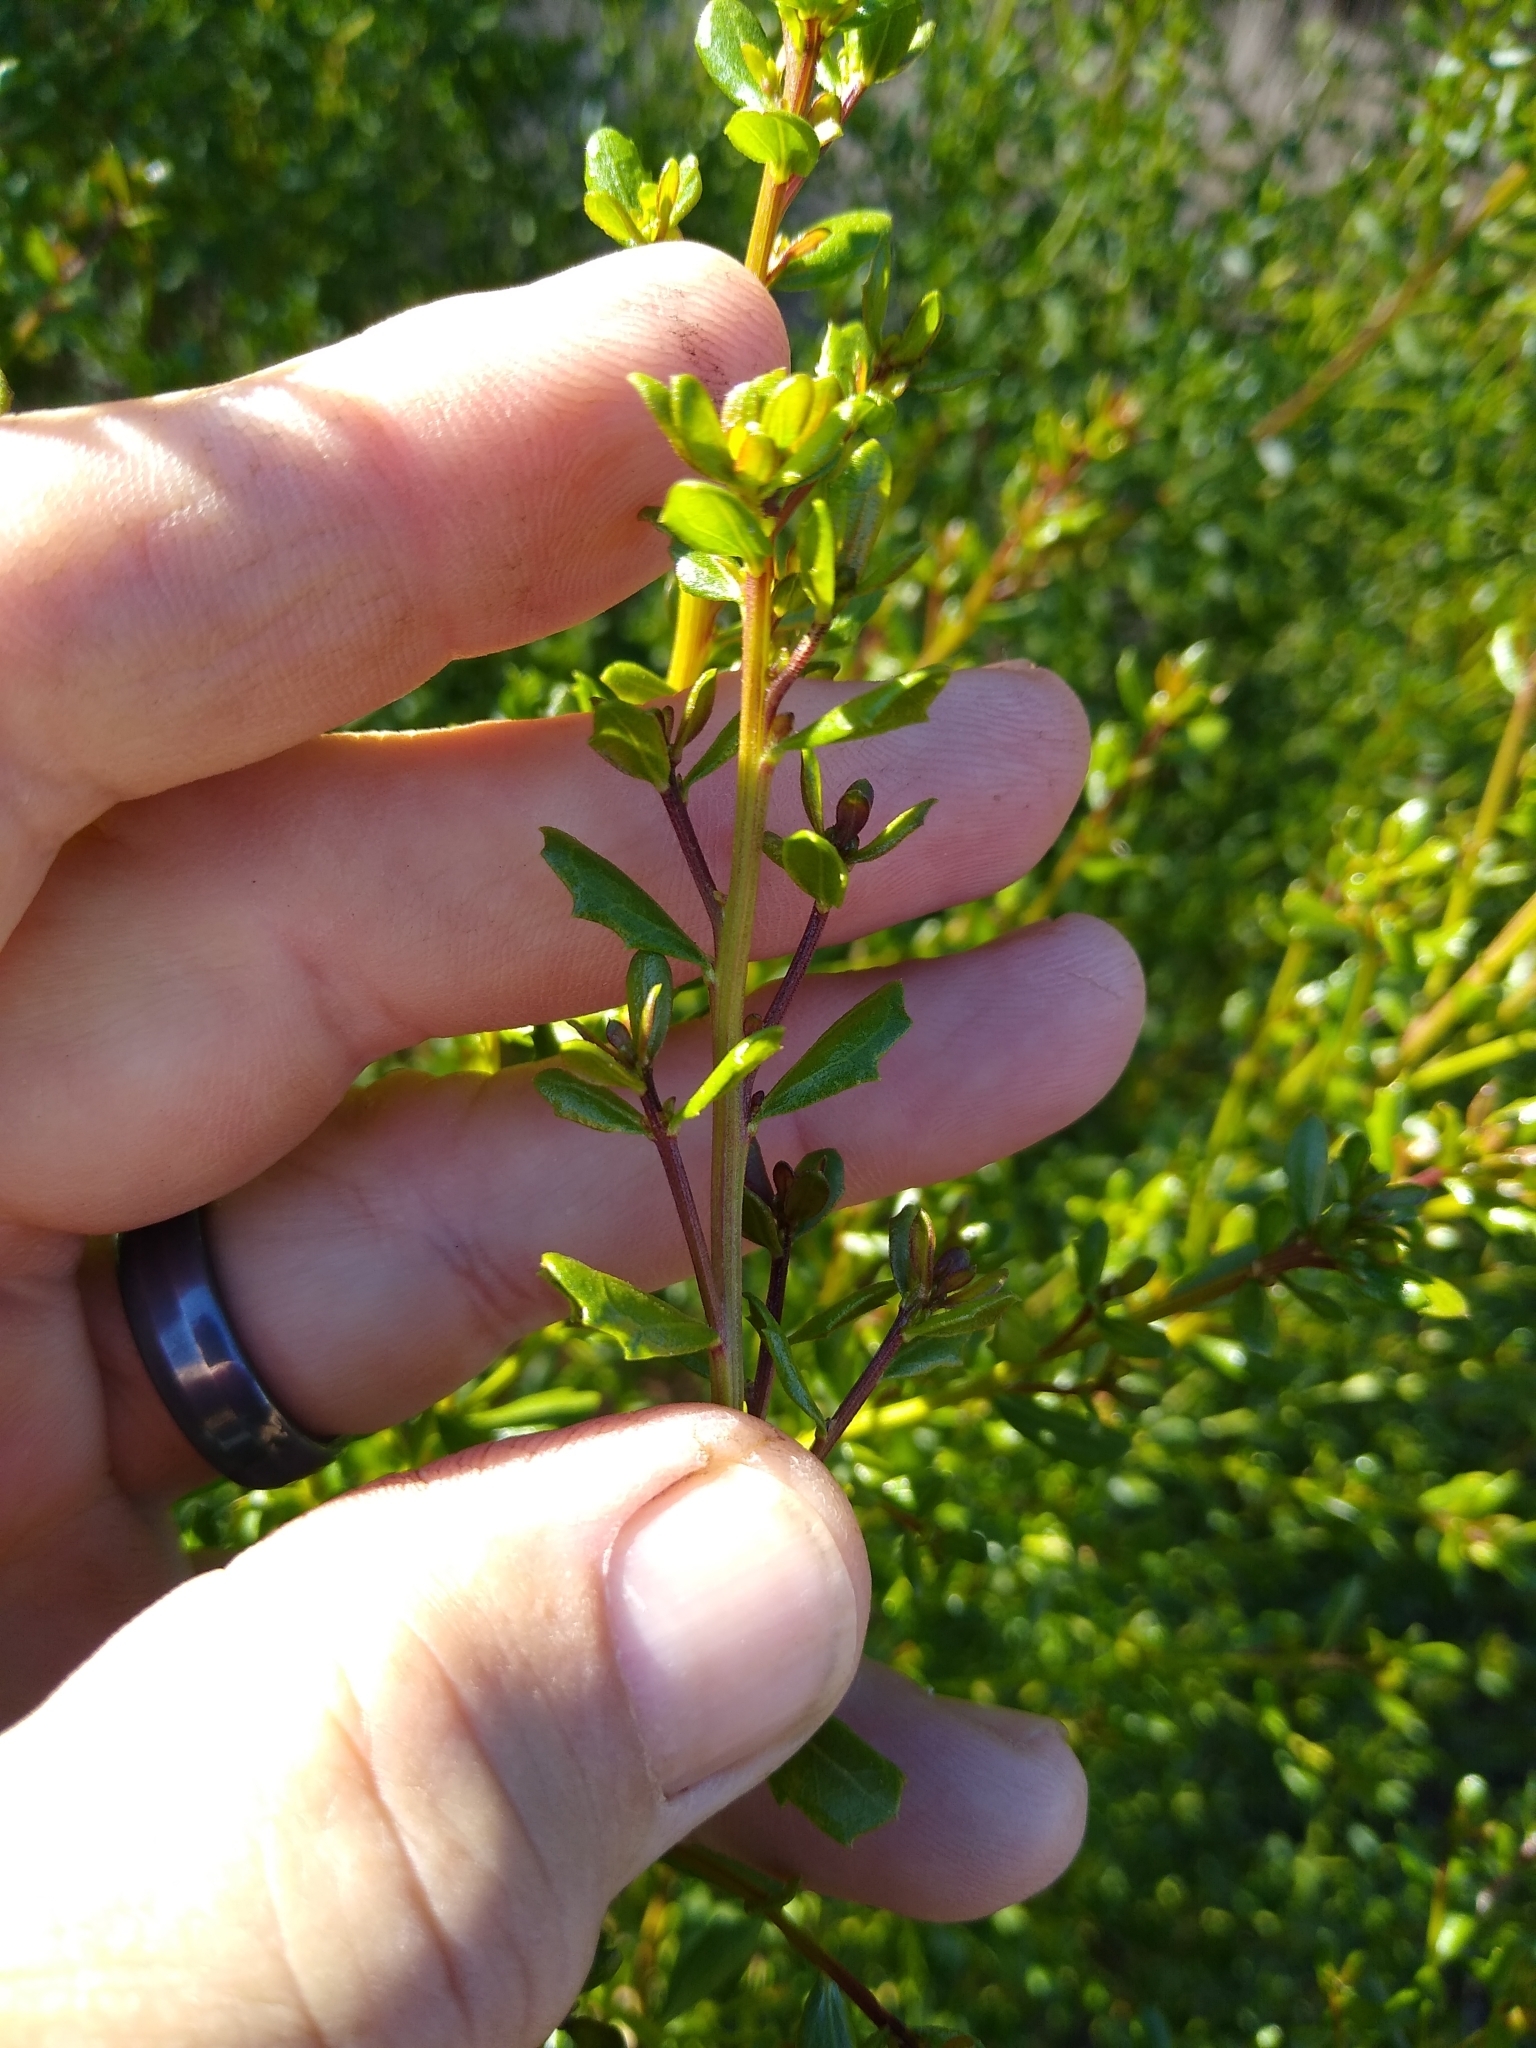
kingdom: Plantae
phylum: Tracheophyta
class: Magnoliopsida
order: Asterales
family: Asteraceae
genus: Baccharis
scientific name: Baccharis pilularis
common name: Coyotebrush
